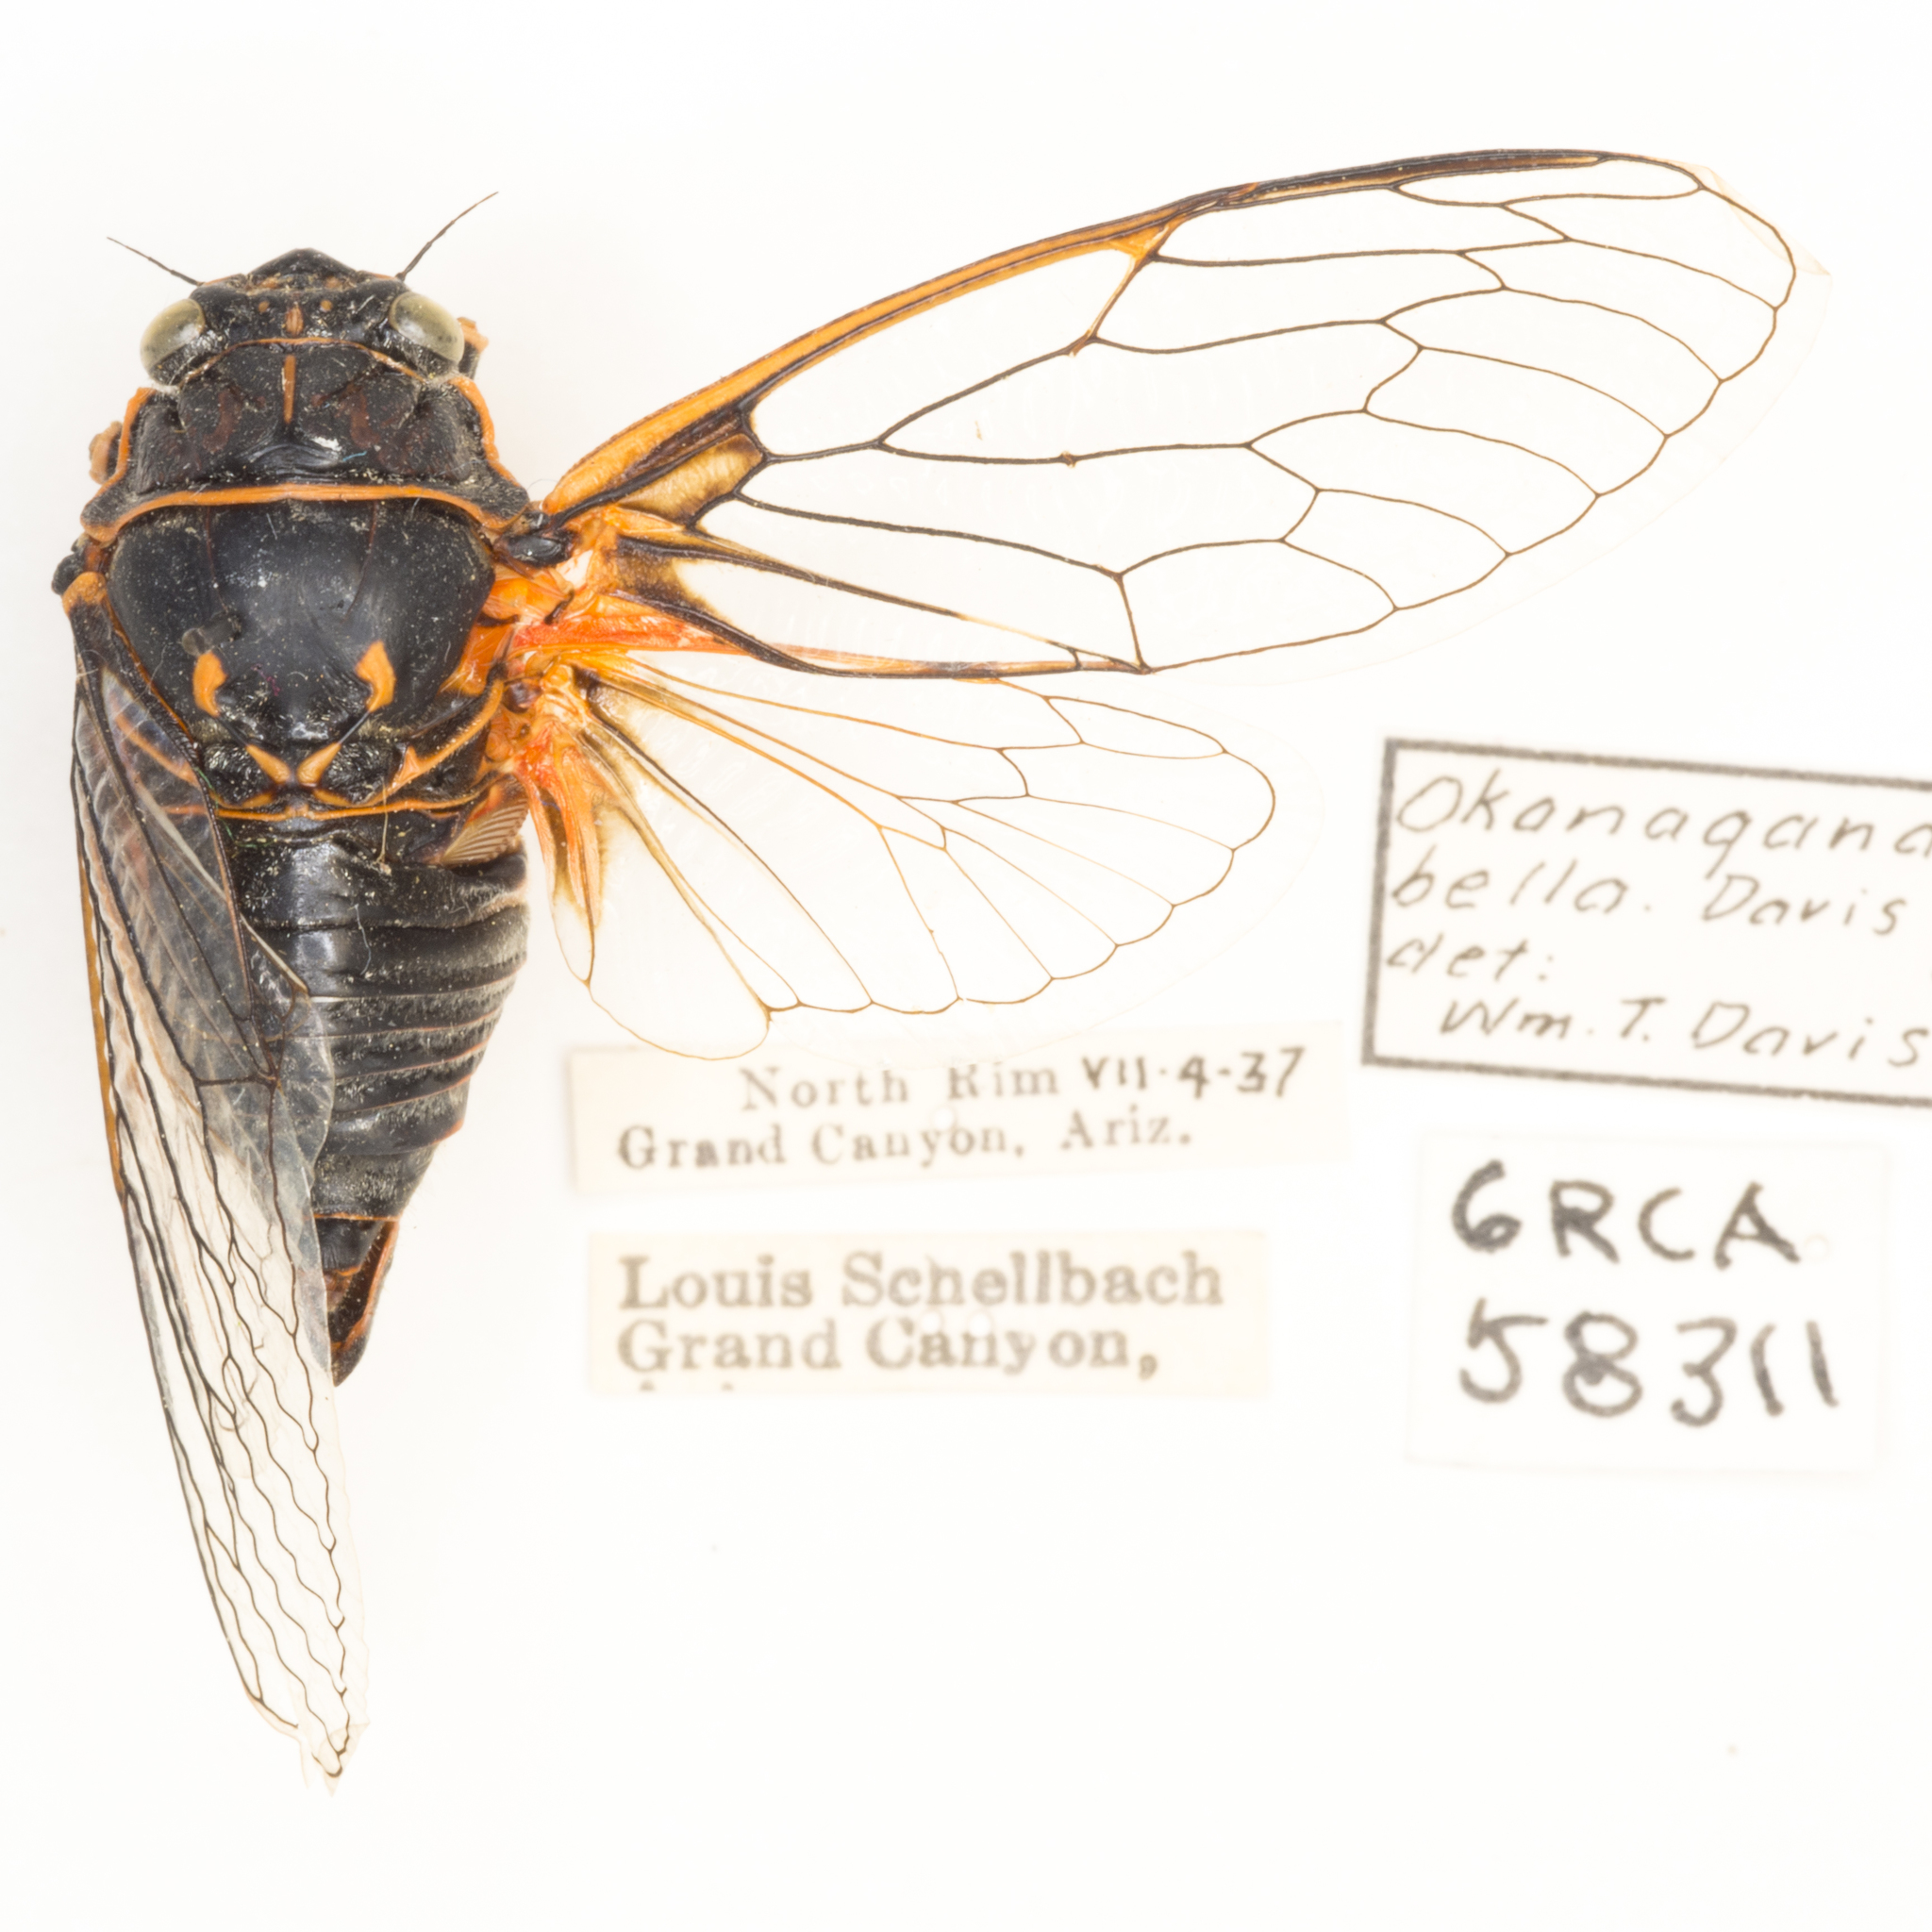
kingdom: Animalia
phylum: Arthropoda
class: Insecta
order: Hemiptera
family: Cicadidae
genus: Okanagana
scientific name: Okanagana bella
